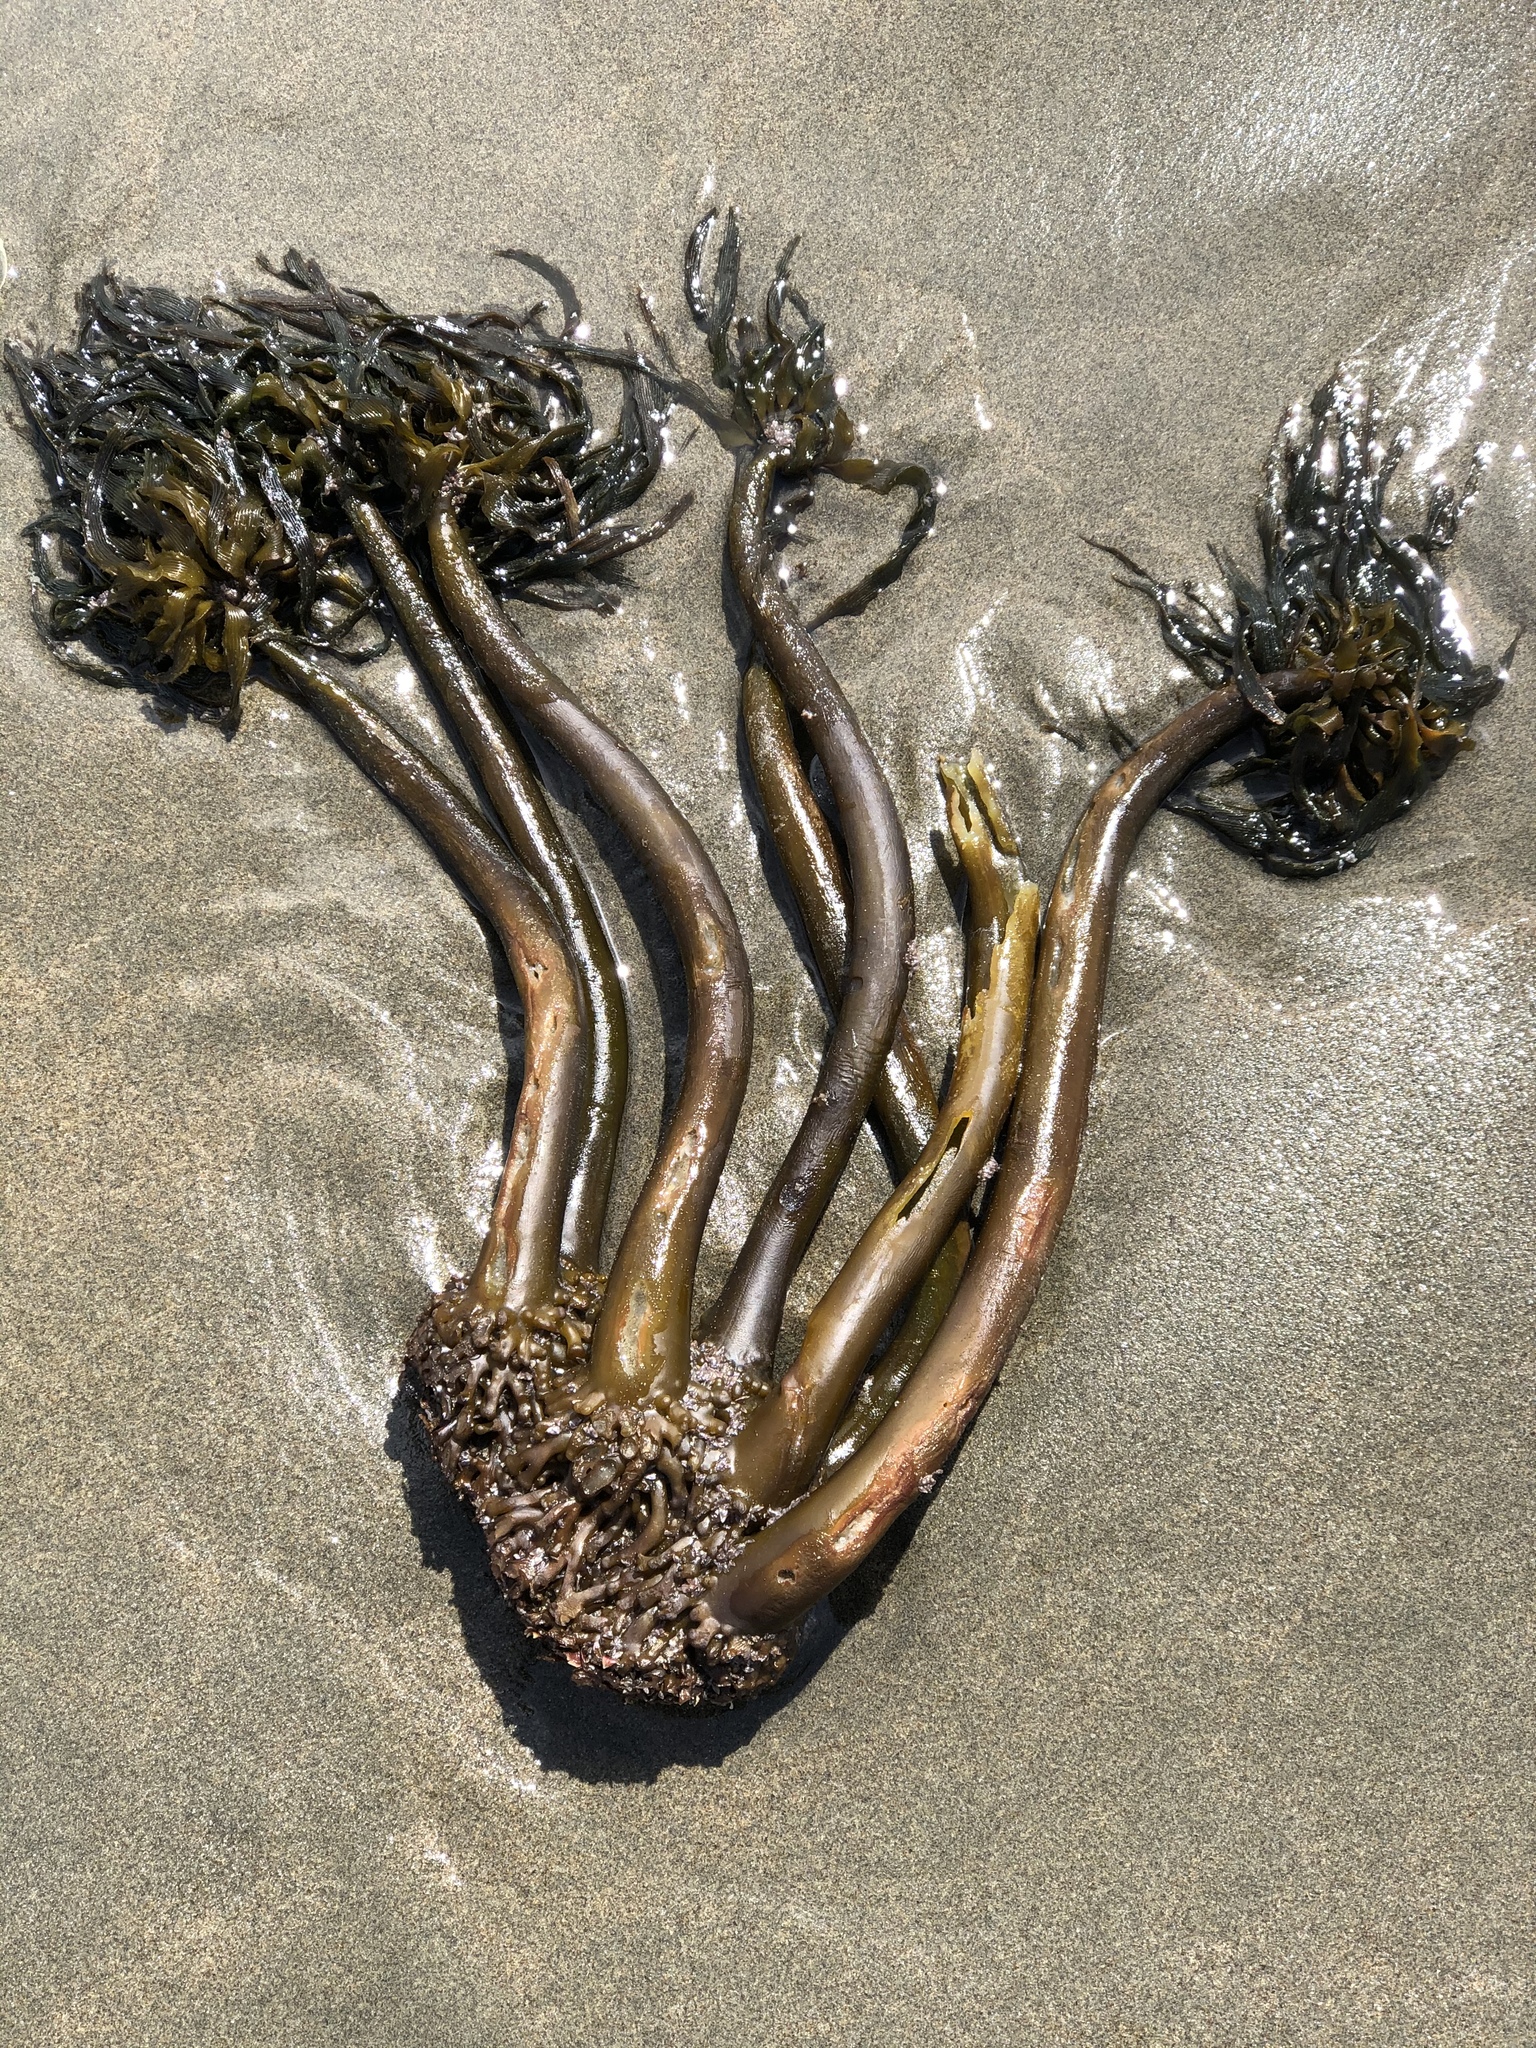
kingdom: Chromista
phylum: Ochrophyta
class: Phaeophyceae
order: Laminariales
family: Laminariaceae
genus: Postelsia
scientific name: Postelsia palmiformis
